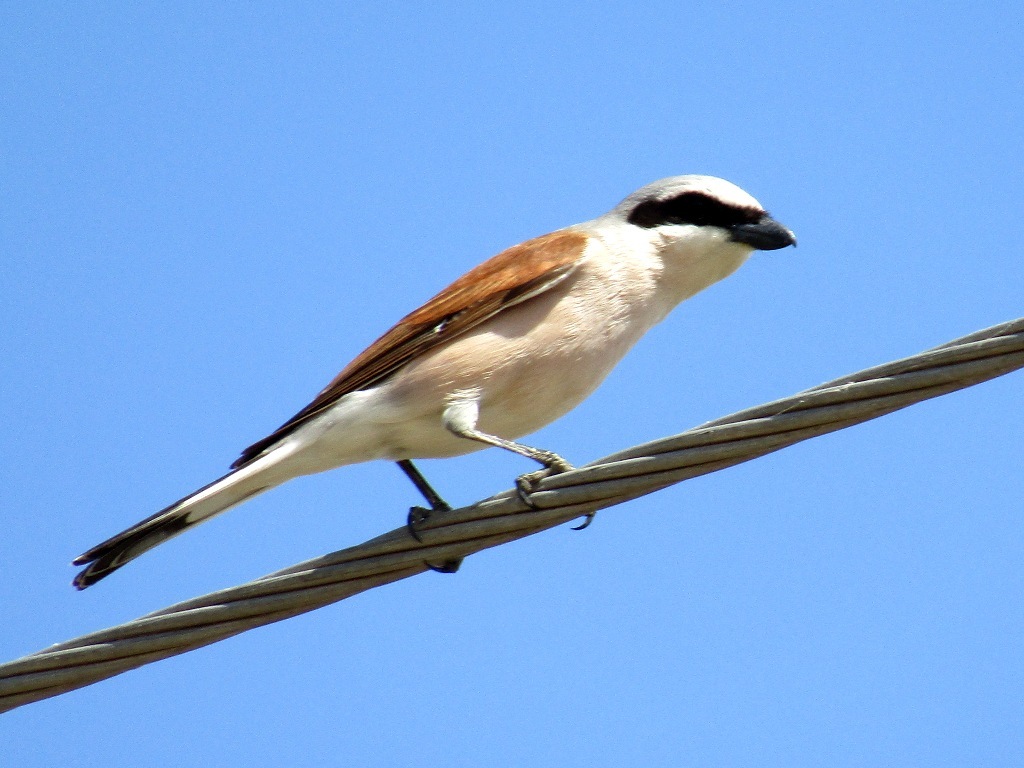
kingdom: Animalia
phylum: Chordata
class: Aves
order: Passeriformes
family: Laniidae
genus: Lanius
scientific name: Lanius collurio
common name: Red-backed shrike
